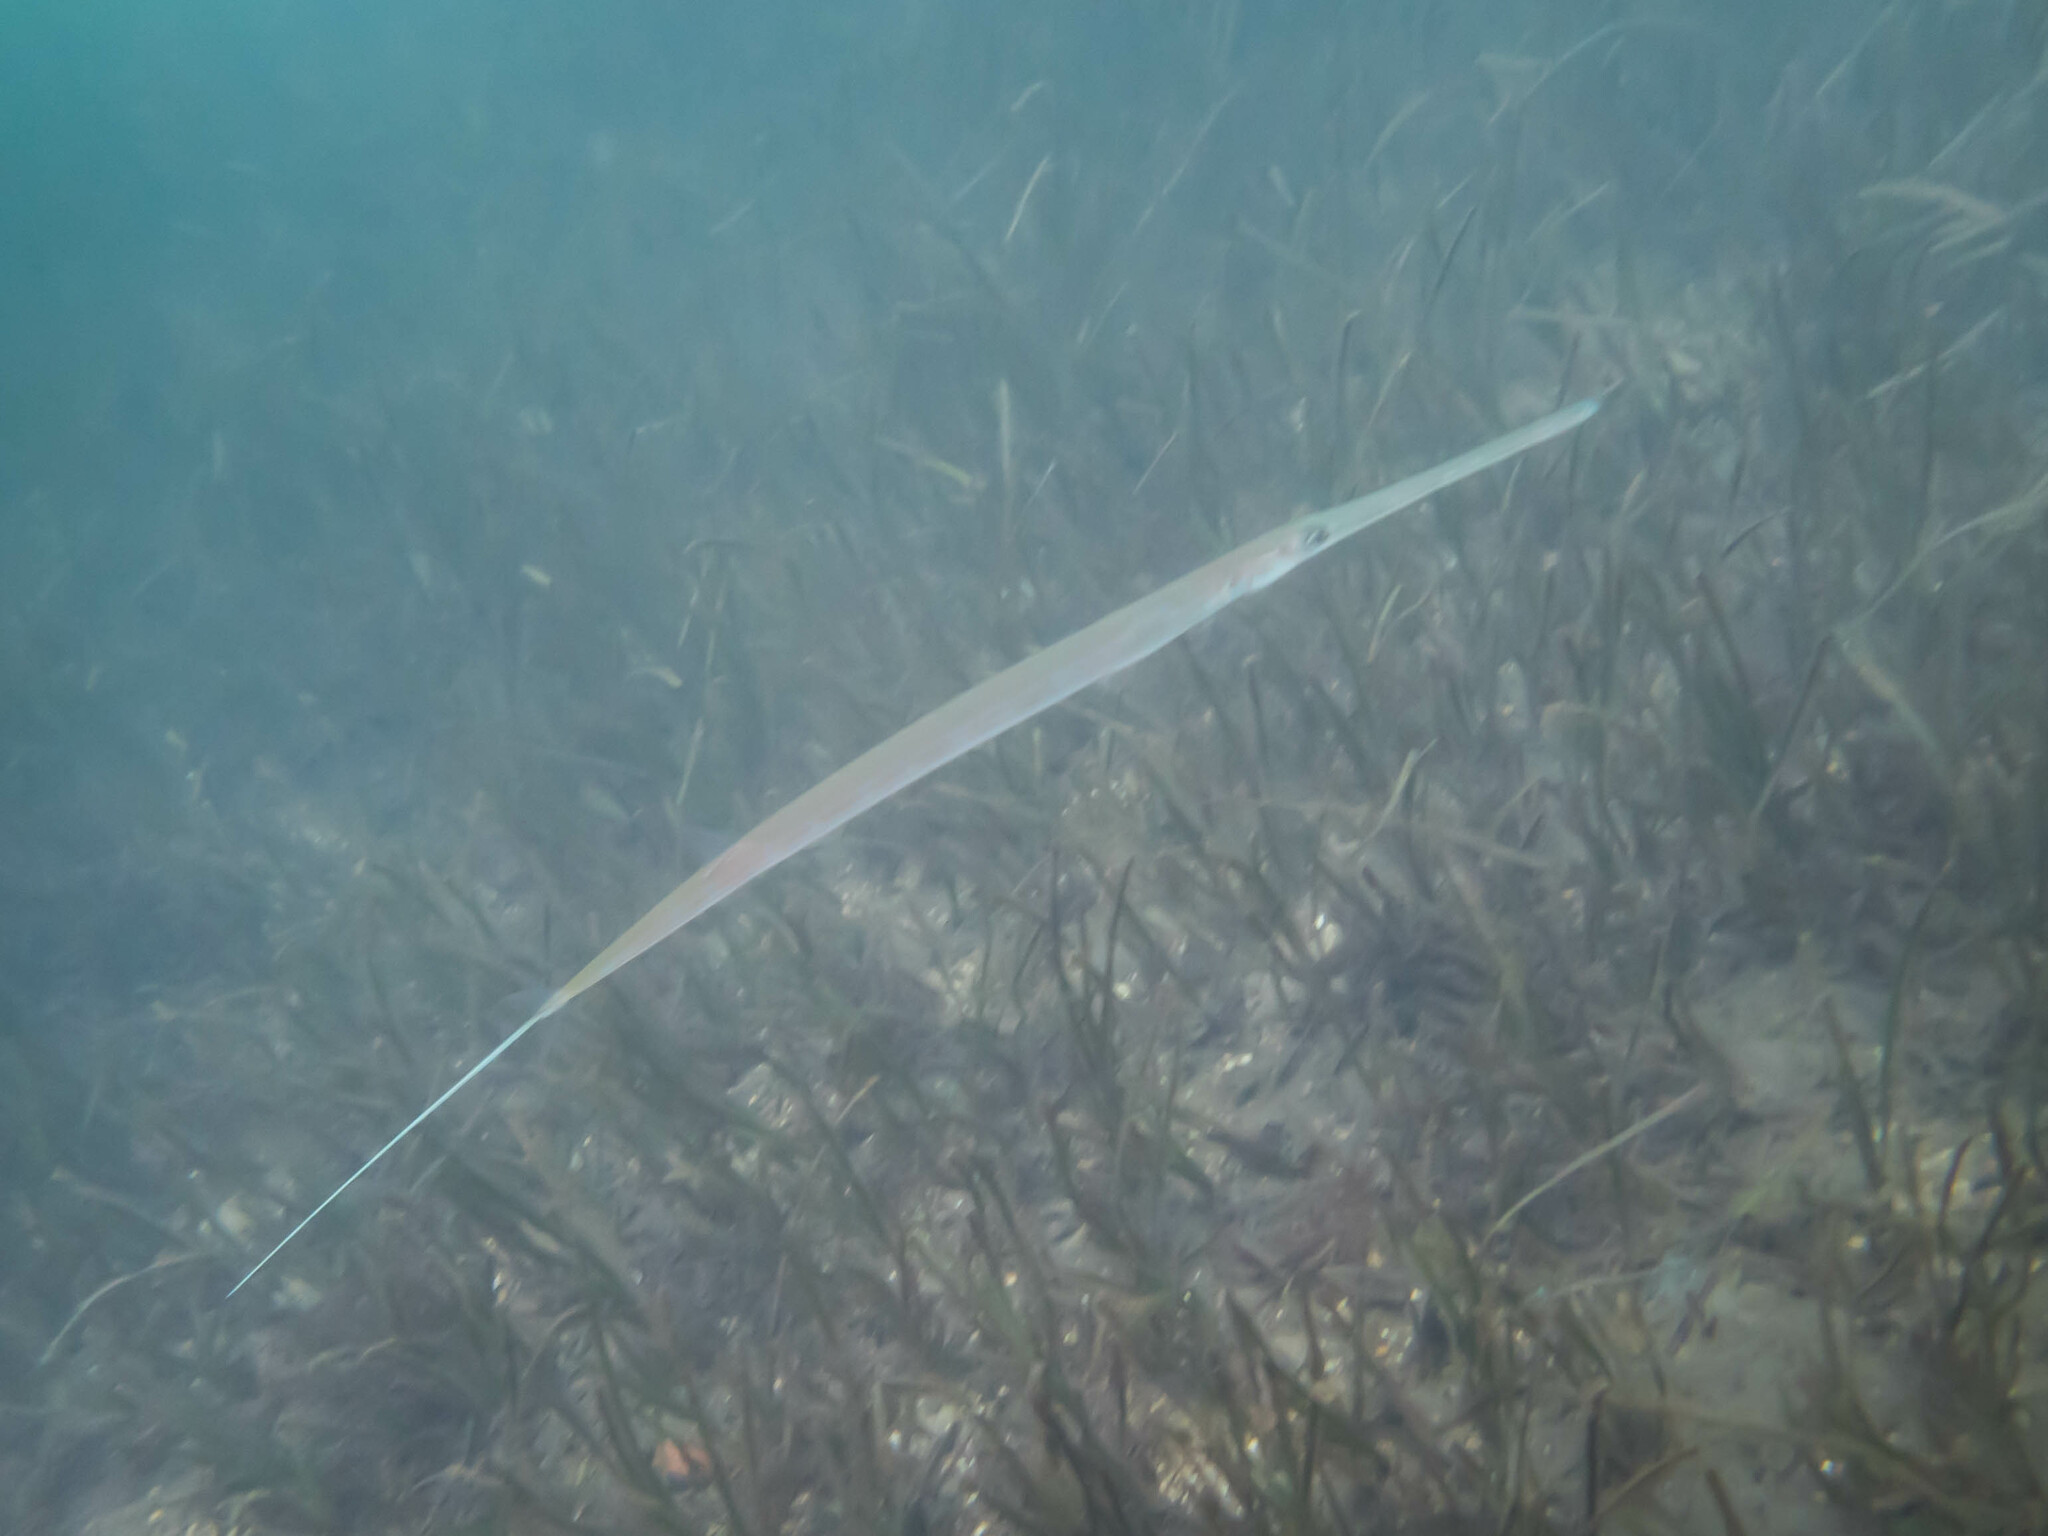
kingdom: Animalia
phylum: Chordata
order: Syngnathiformes
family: Fistulariidae
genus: Fistularia
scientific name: Fistularia commersonii
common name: Bluespotted cornetfish
